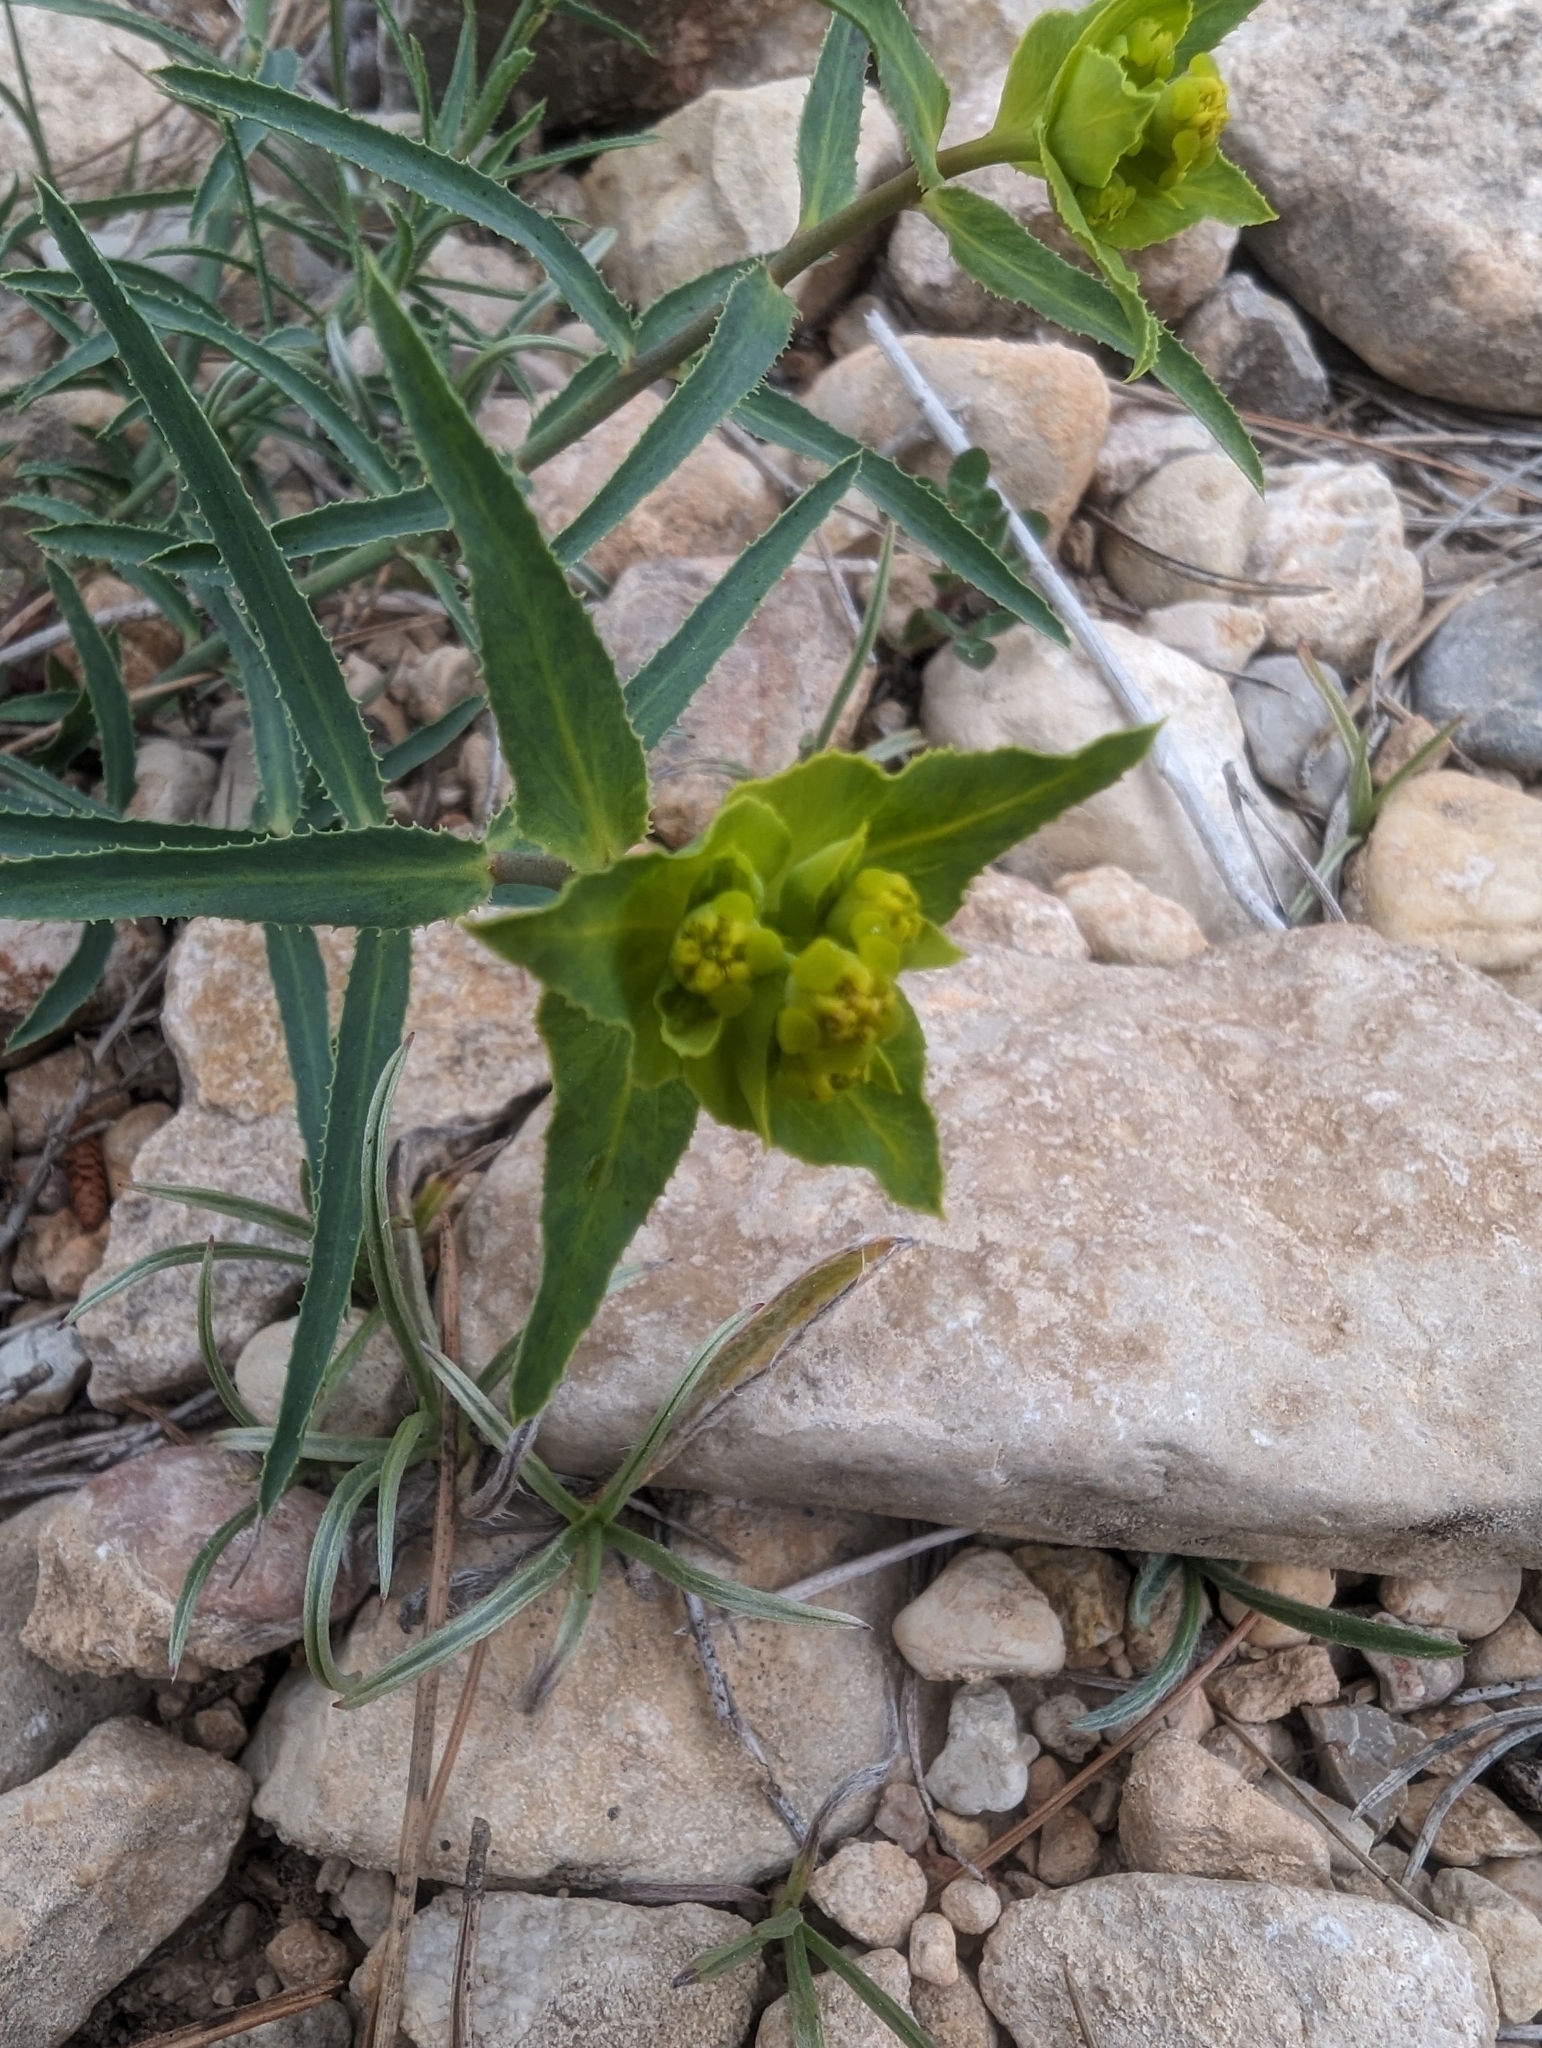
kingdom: Plantae
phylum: Tracheophyta
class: Magnoliopsida
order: Malpighiales
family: Euphorbiaceae
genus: Euphorbia
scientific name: Euphorbia serrata
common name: Serrate spurge
